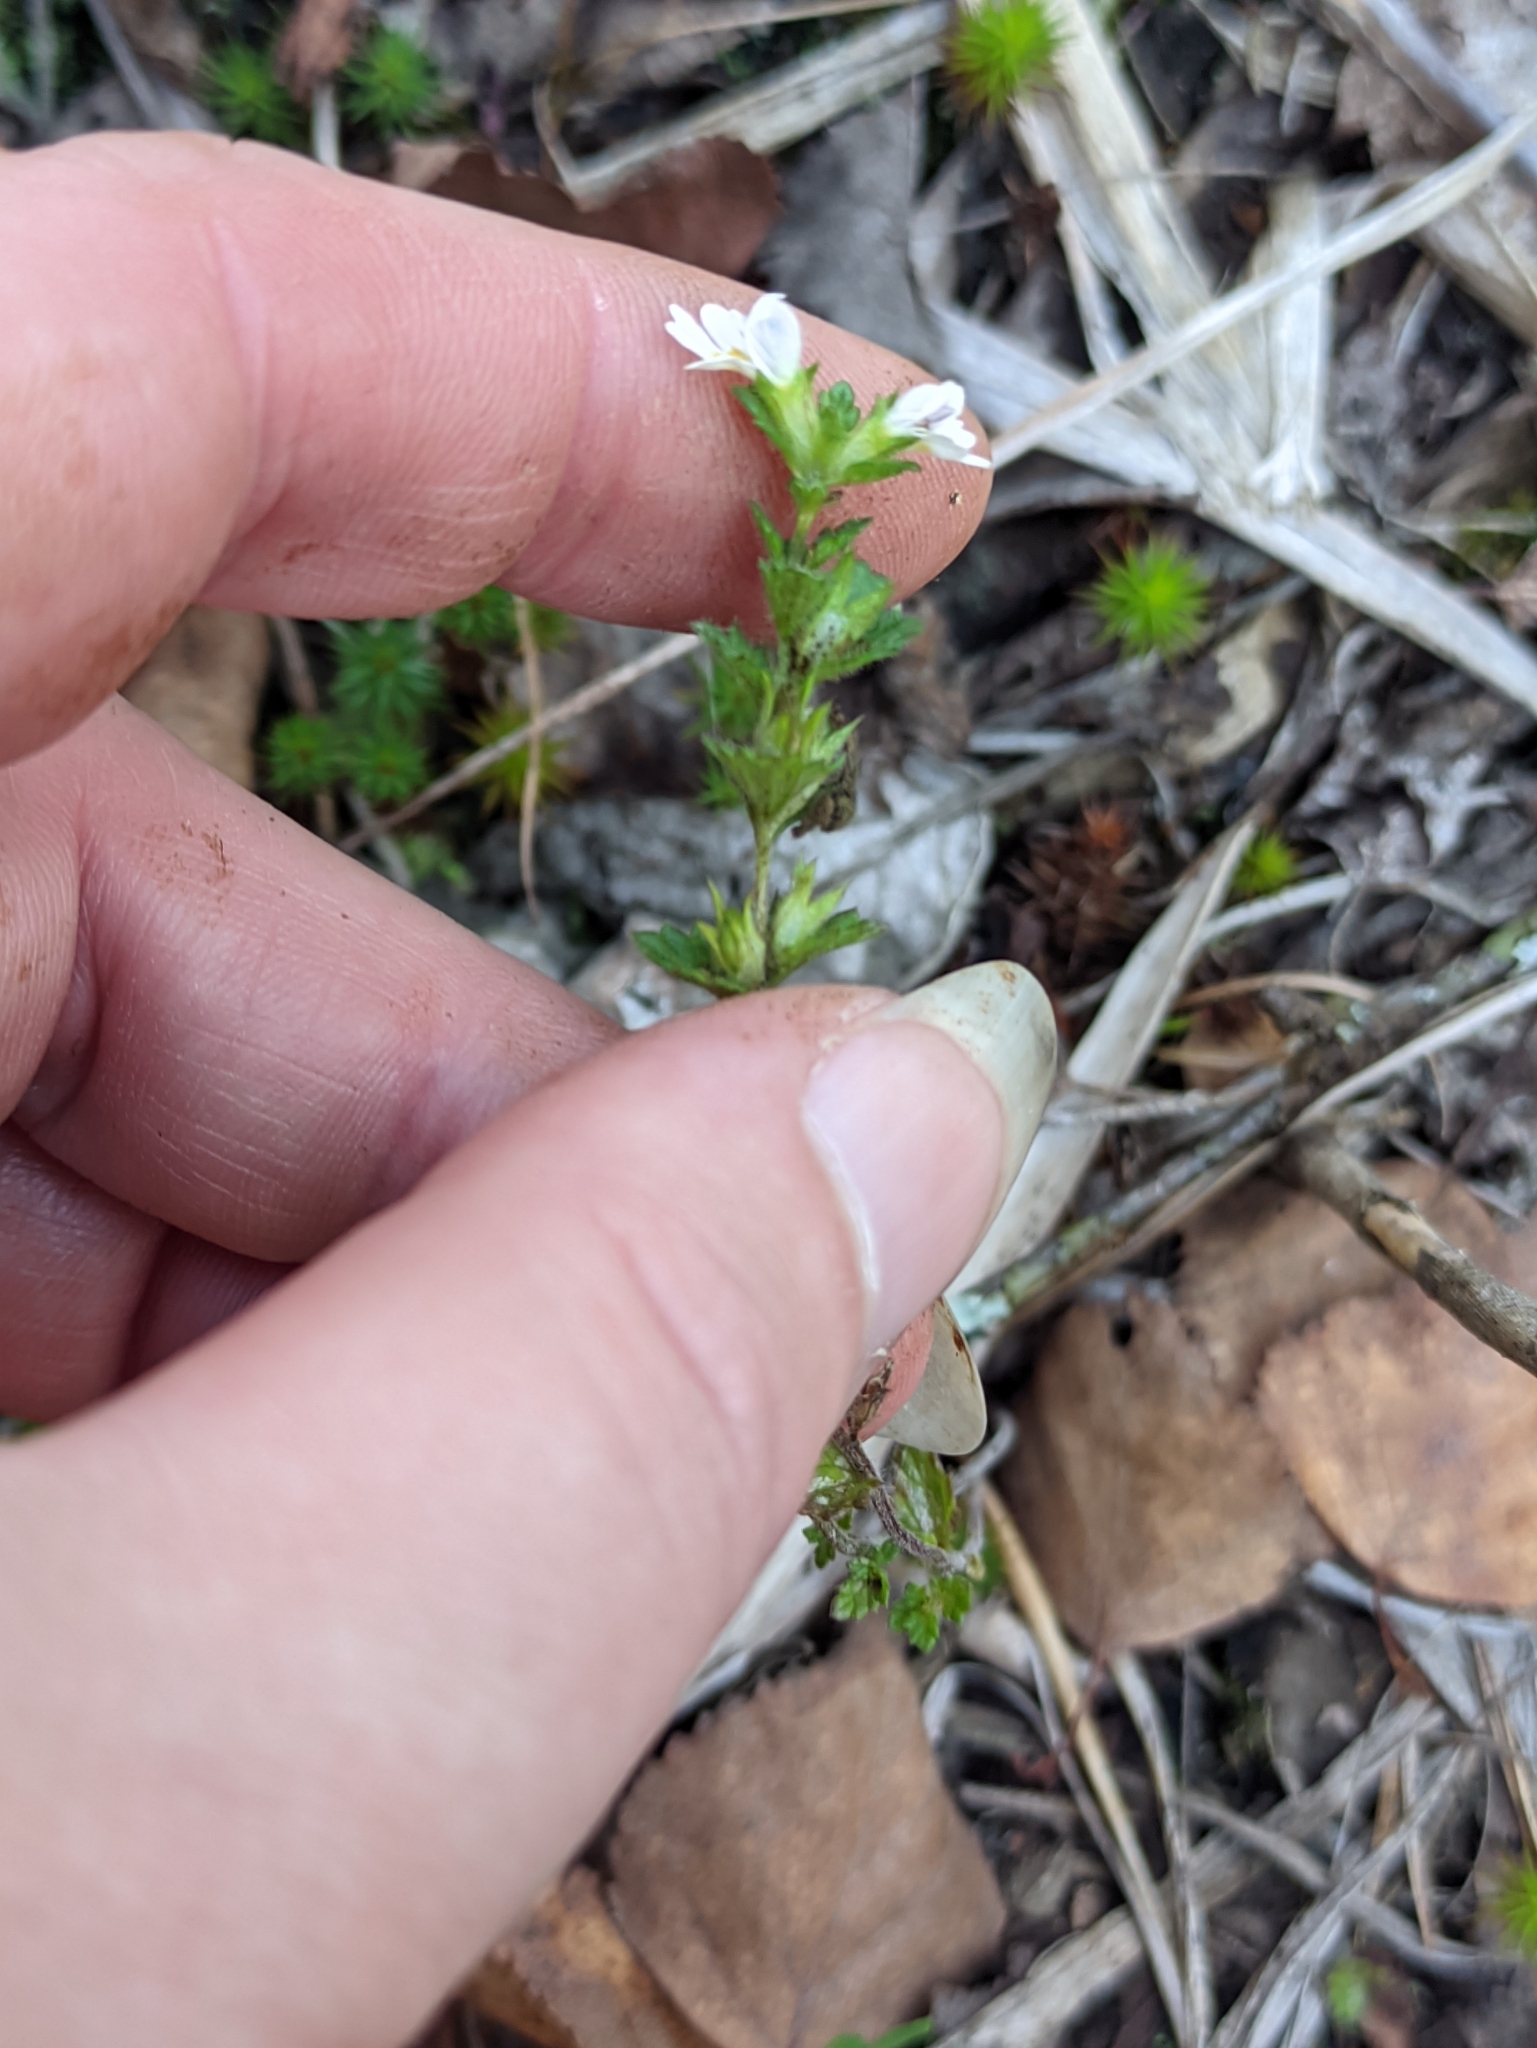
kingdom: Plantae
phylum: Tracheophyta
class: Magnoliopsida
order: Lamiales
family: Orobanchaceae
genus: Euphrasia
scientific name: Euphrasia stricta
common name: Drug eyebright
